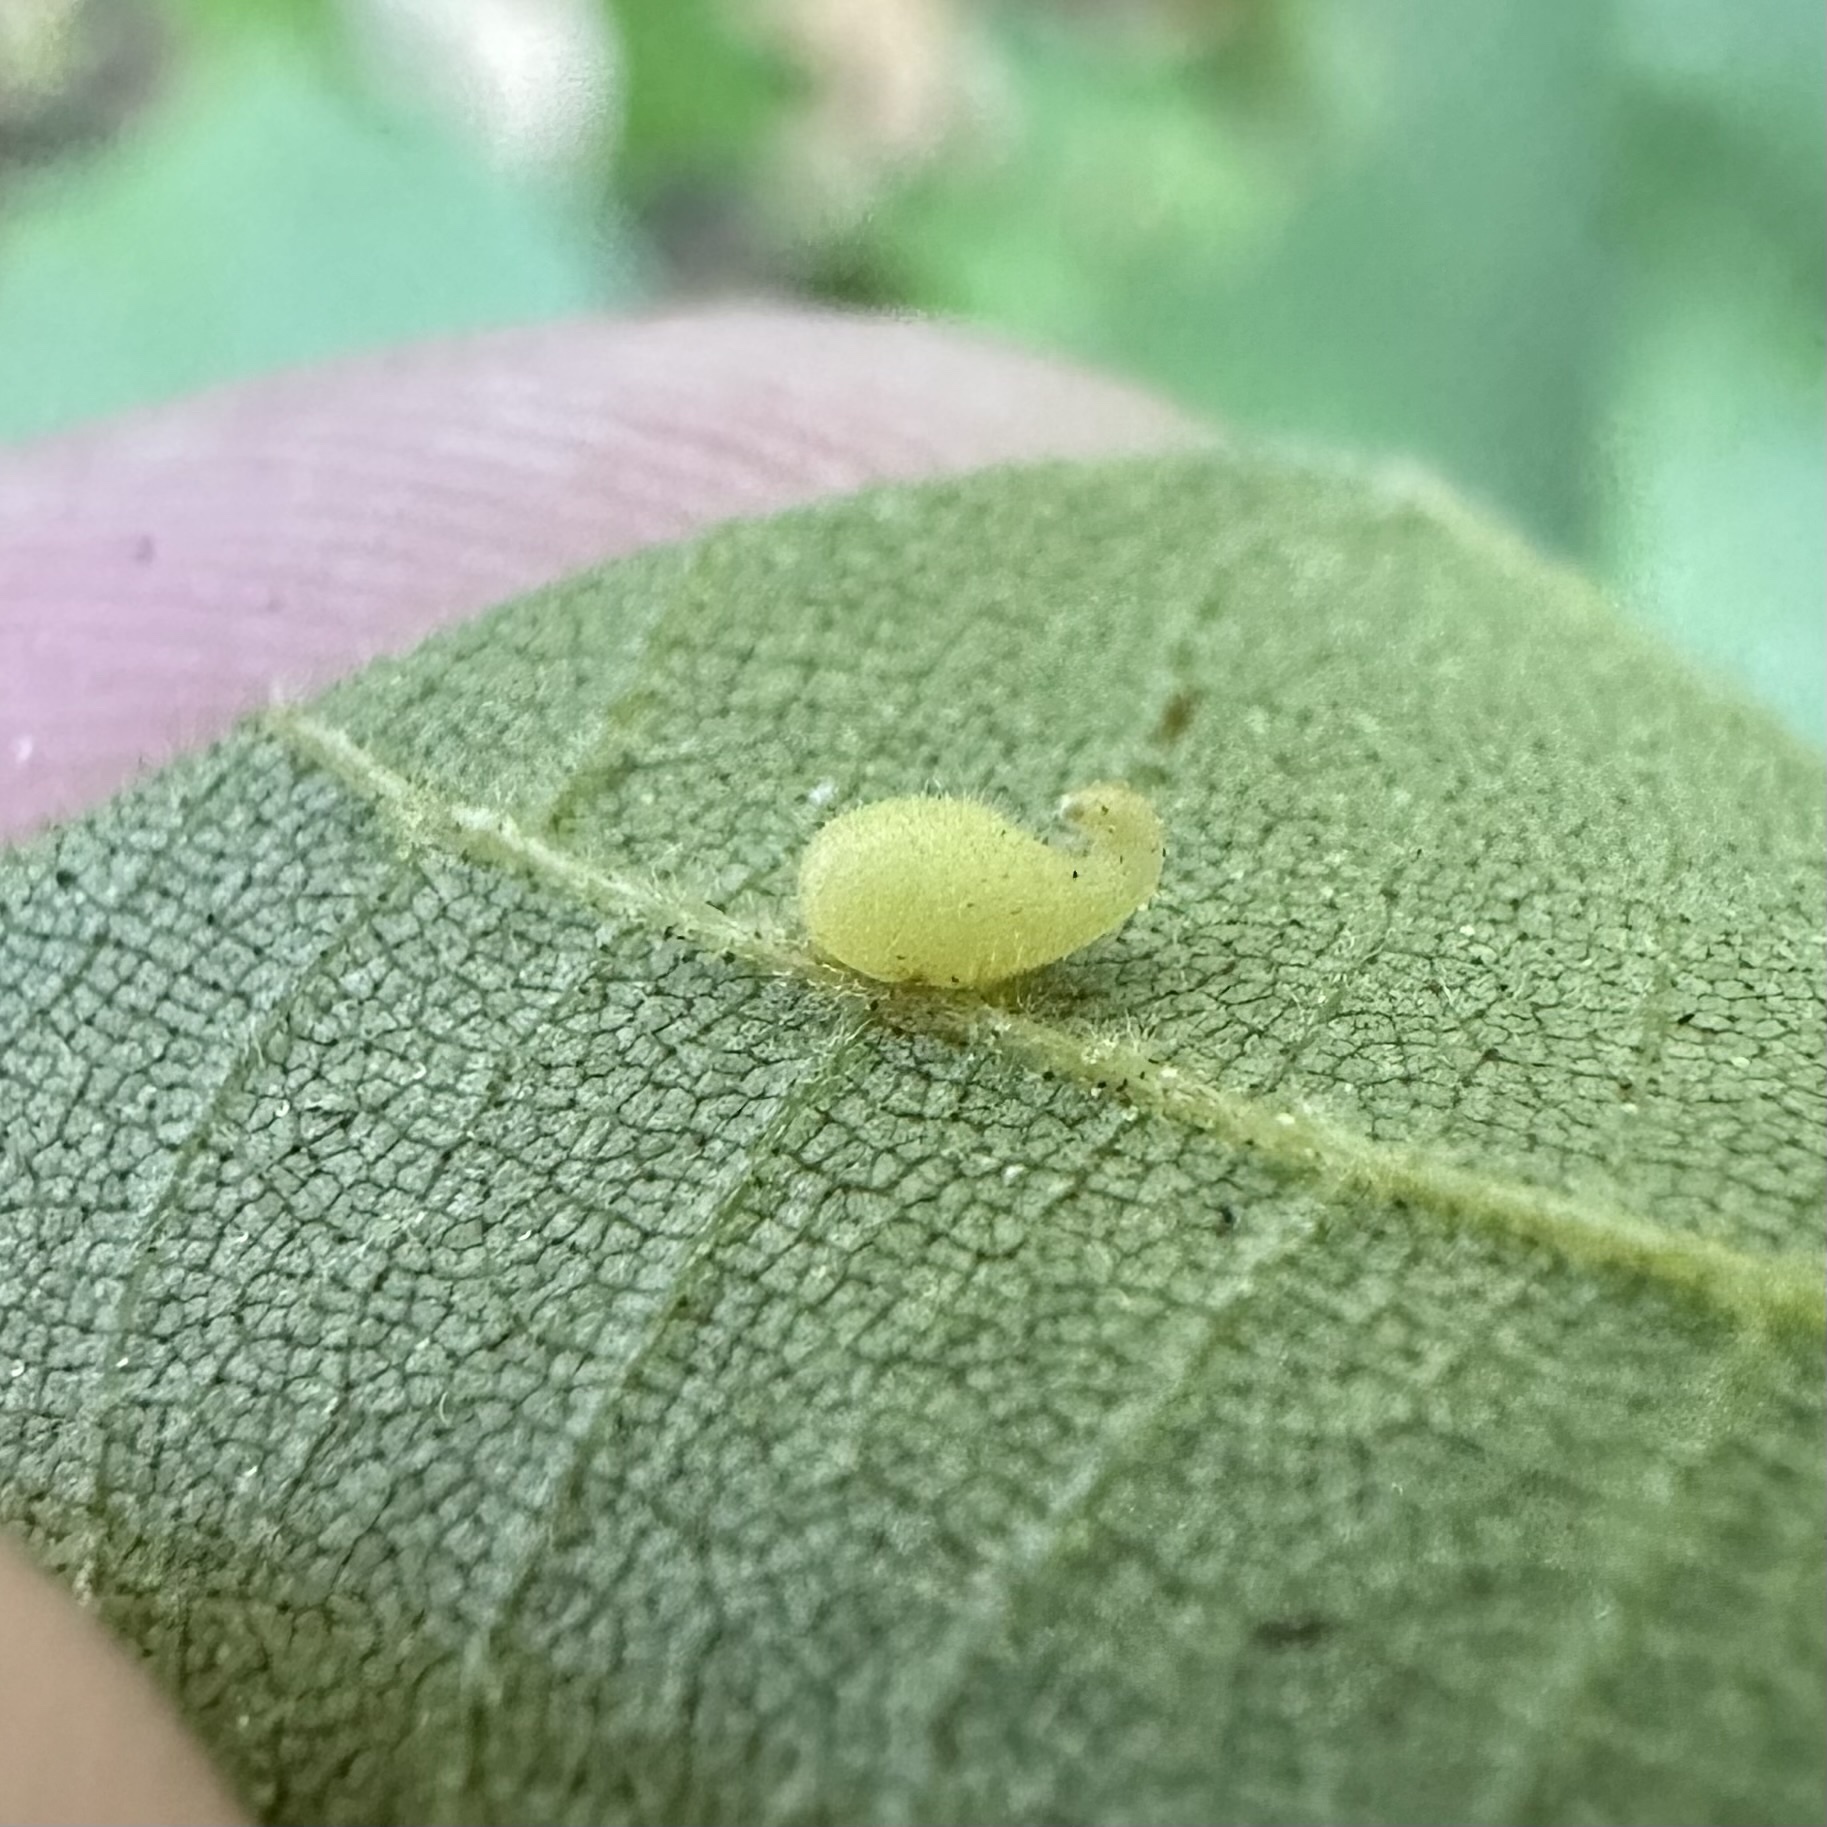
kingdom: Animalia
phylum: Arthropoda
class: Insecta
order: Diptera
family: Cecidomyiidae
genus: Caryomyia
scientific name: Caryomyia eumaris
